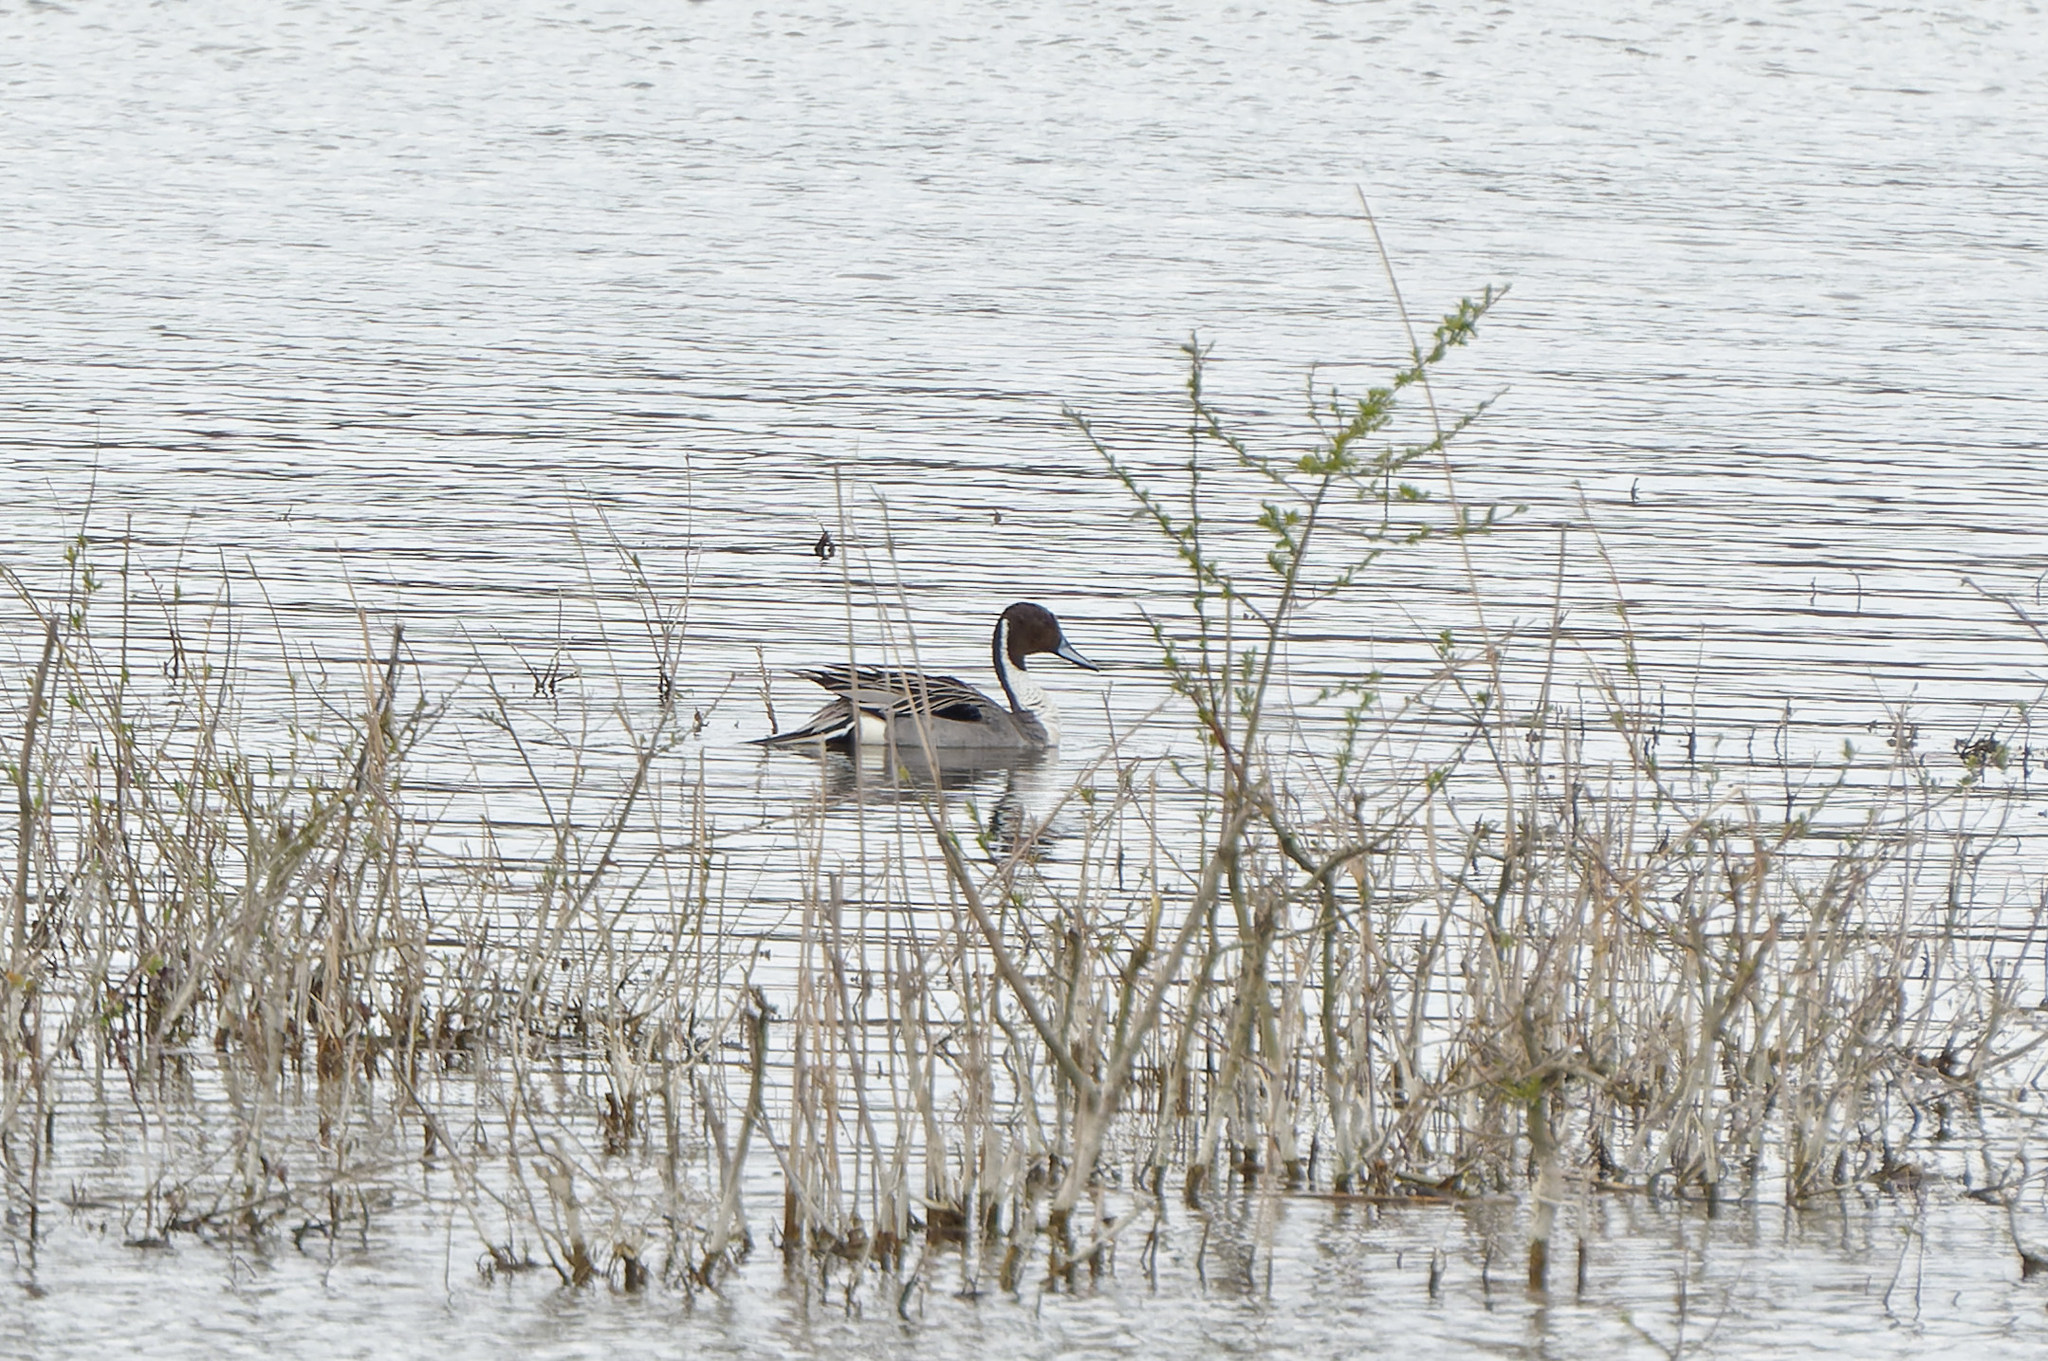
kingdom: Animalia
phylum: Chordata
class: Aves
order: Anseriformes
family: Anatidae
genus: Anas
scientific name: Anas acuta
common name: Northern pintail
